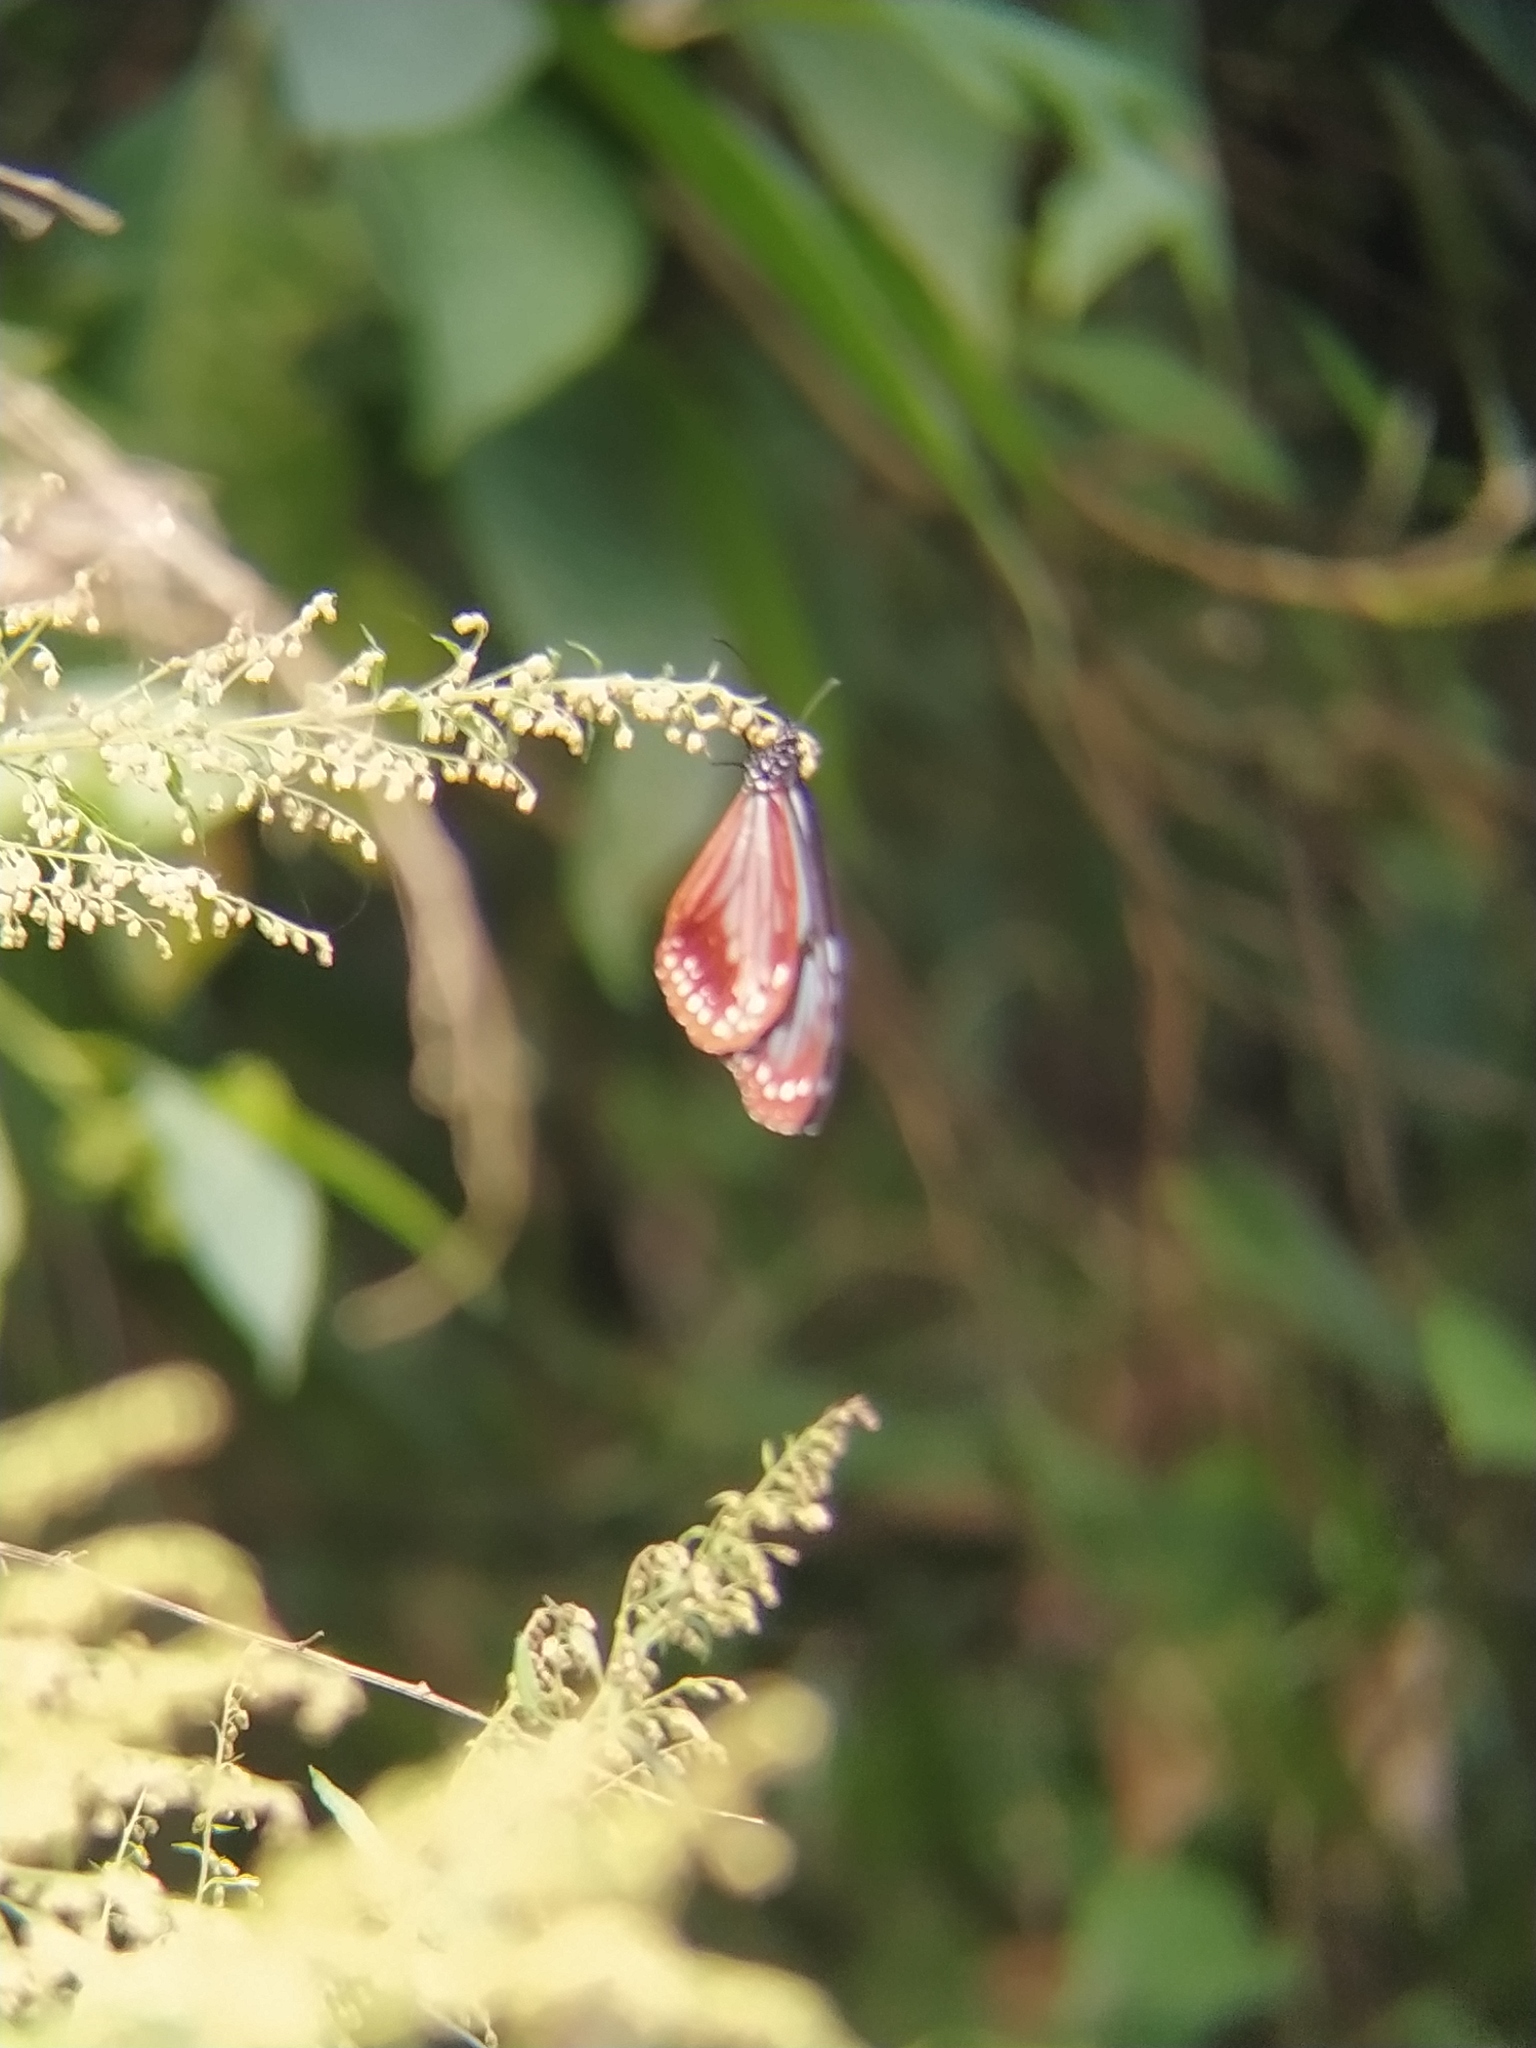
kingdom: Animalia
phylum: Arthropoda
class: Insecta
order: Lepidoptera
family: Nymphalidae
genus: Parantica
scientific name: Parantica sita
